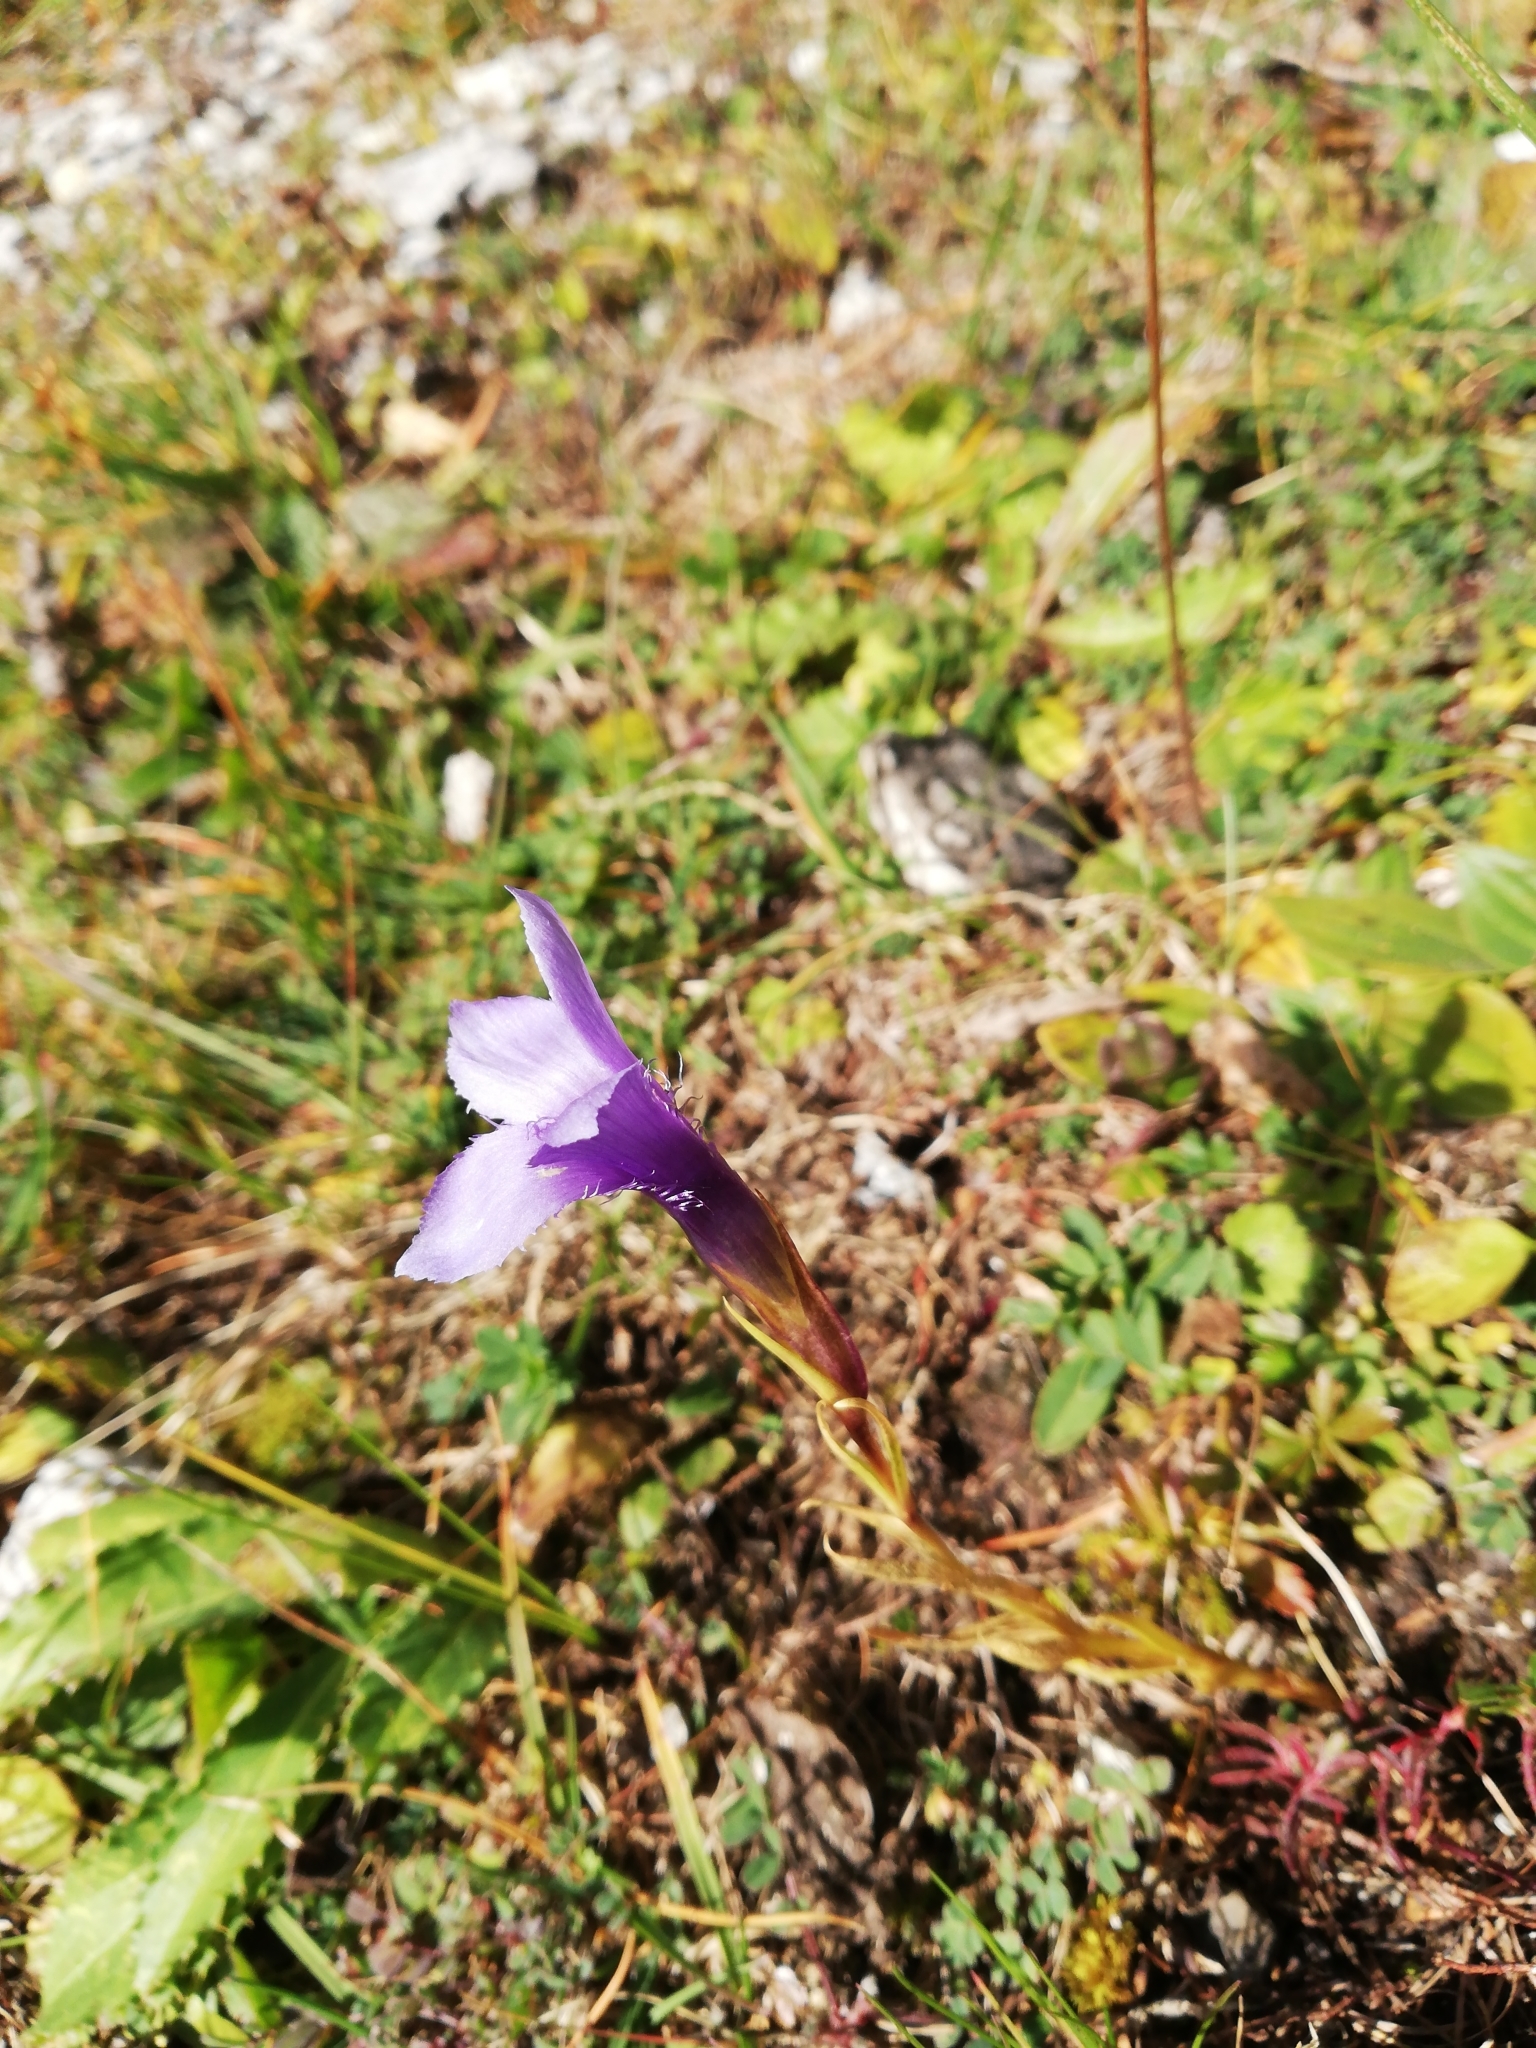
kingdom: Plantae
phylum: Tracheophyta
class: Magnoliopsida
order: Gentianales
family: Gentianaceae
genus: Gentianopsis
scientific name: Gentianopsis ciliata
